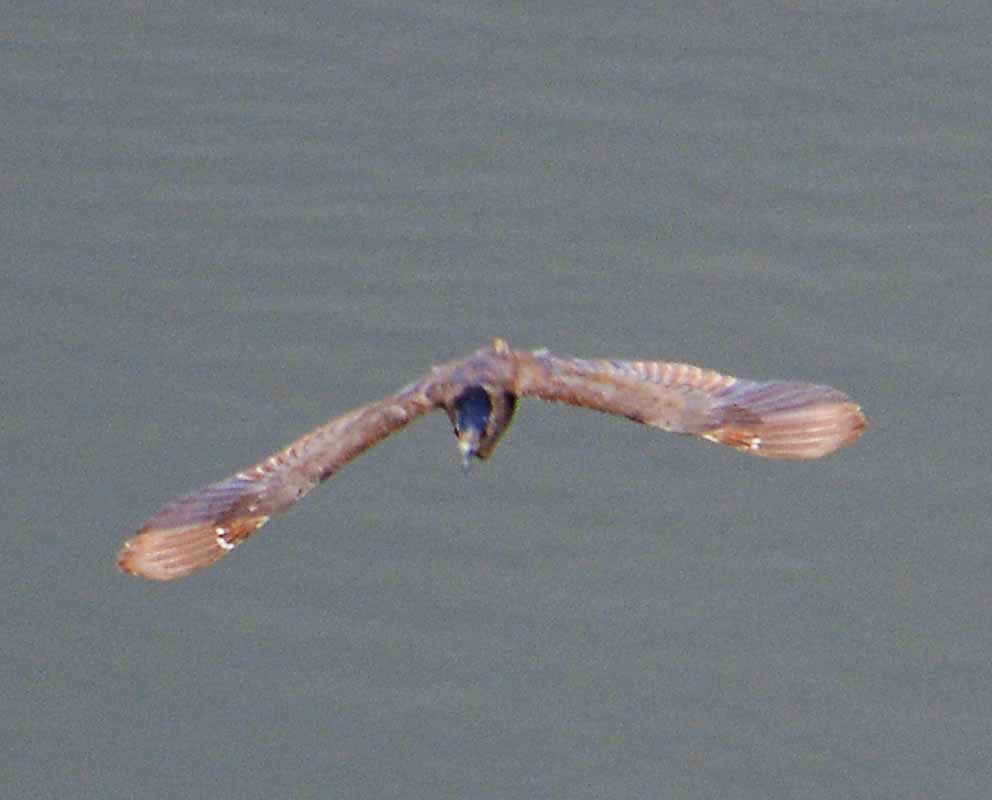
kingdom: Animalia
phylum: Chordata
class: Aves
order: Pelecaniformes
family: Ardeidae
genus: Nycticorax
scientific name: Nycticorax nycticorax
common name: Black-crowned night heron
